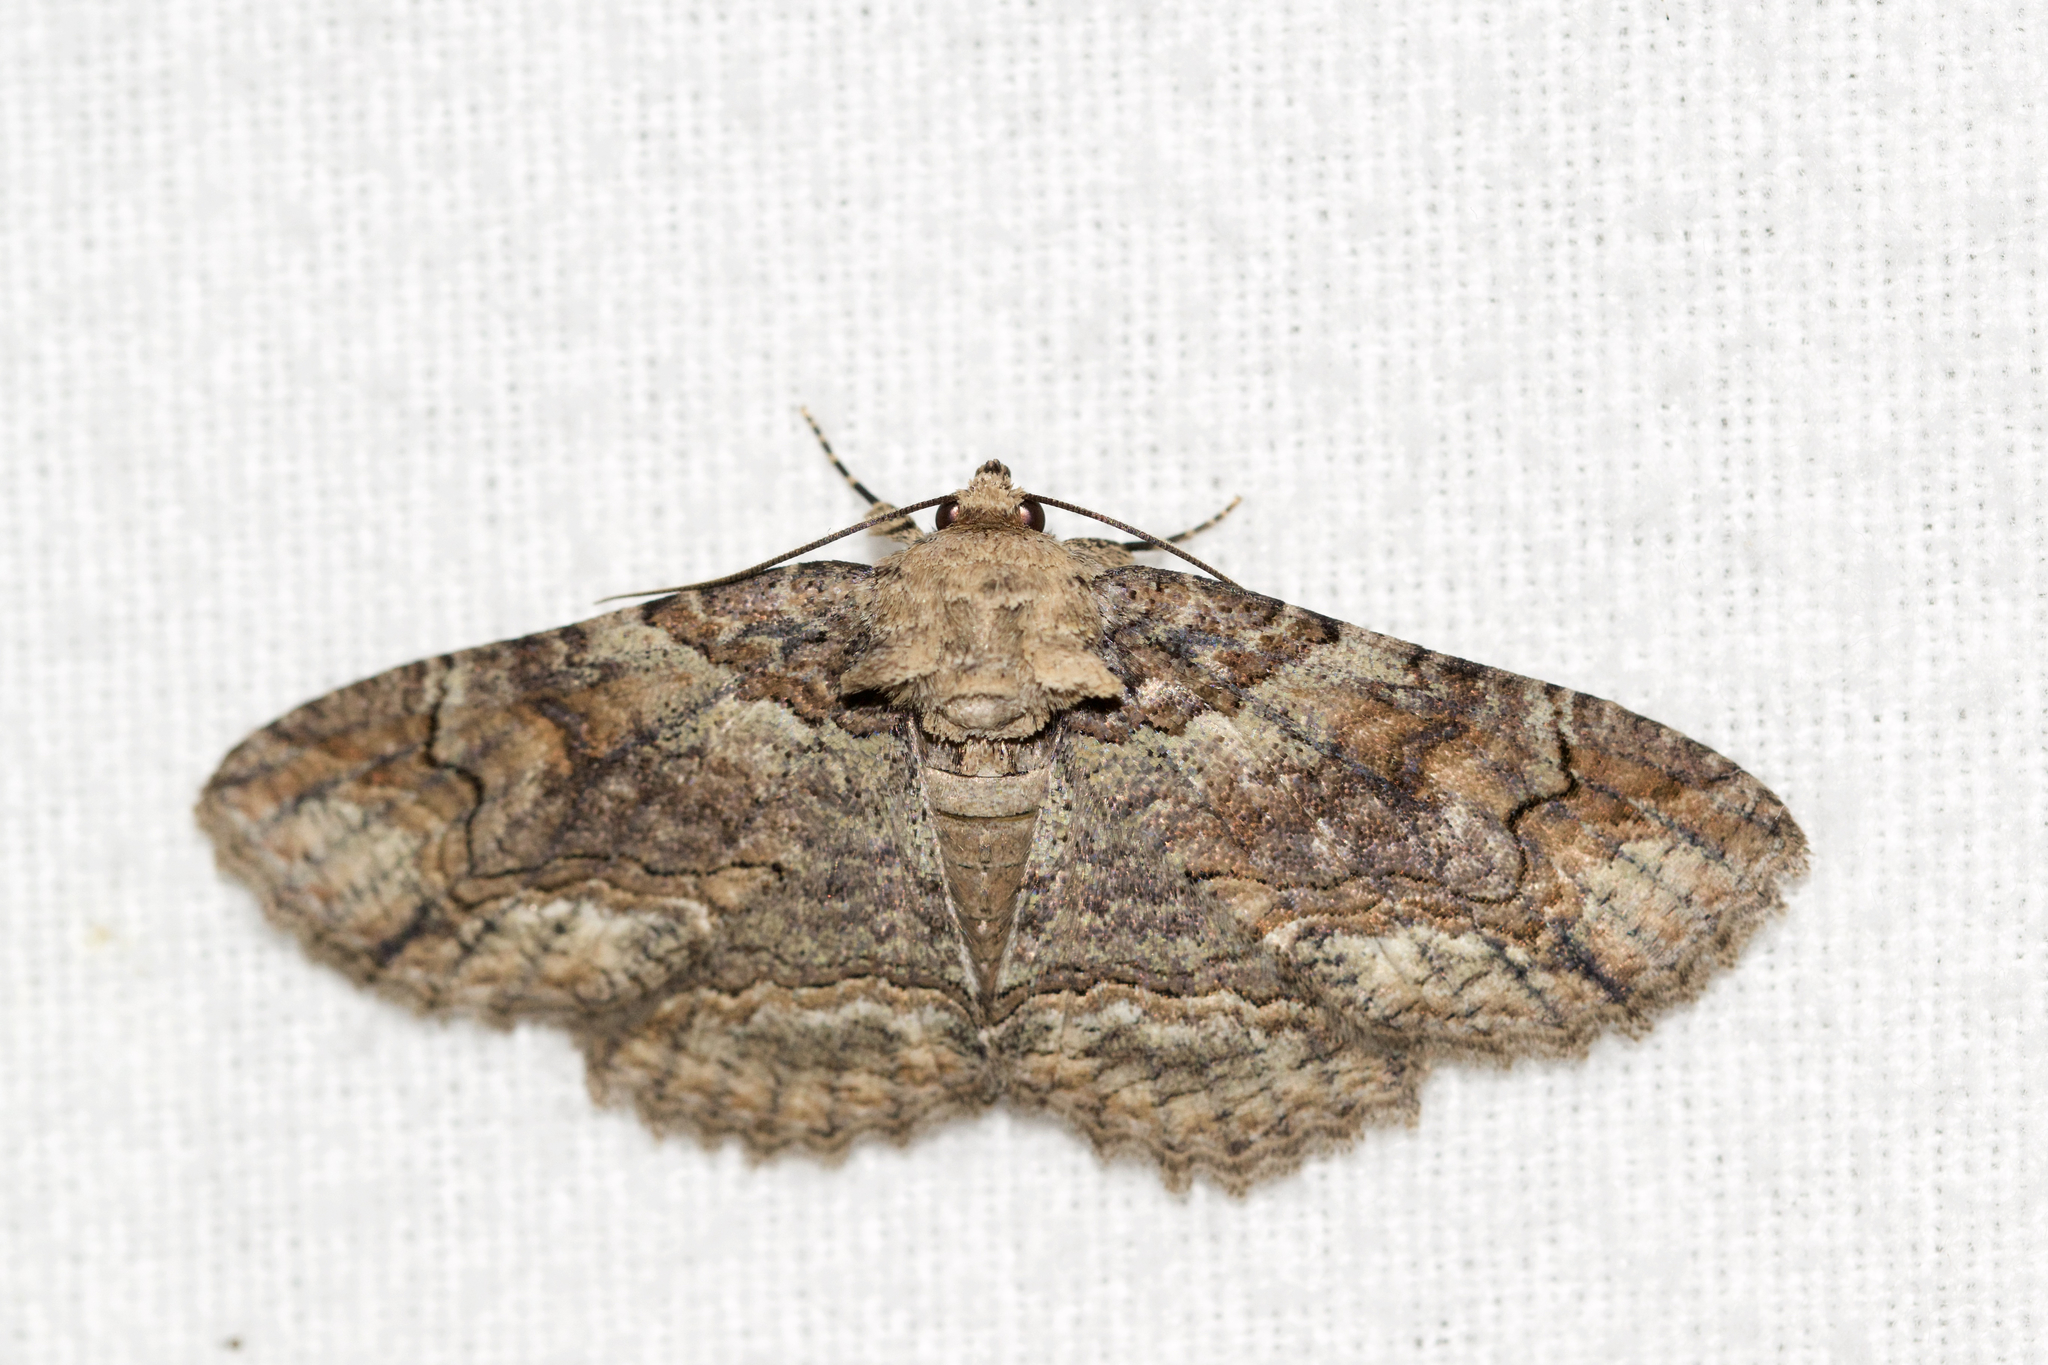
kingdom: Animalia
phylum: Arthropoda
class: Insecta
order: Lepidoptera
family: Erebidae
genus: Zale
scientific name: Zale galbanata
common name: Maple zale
